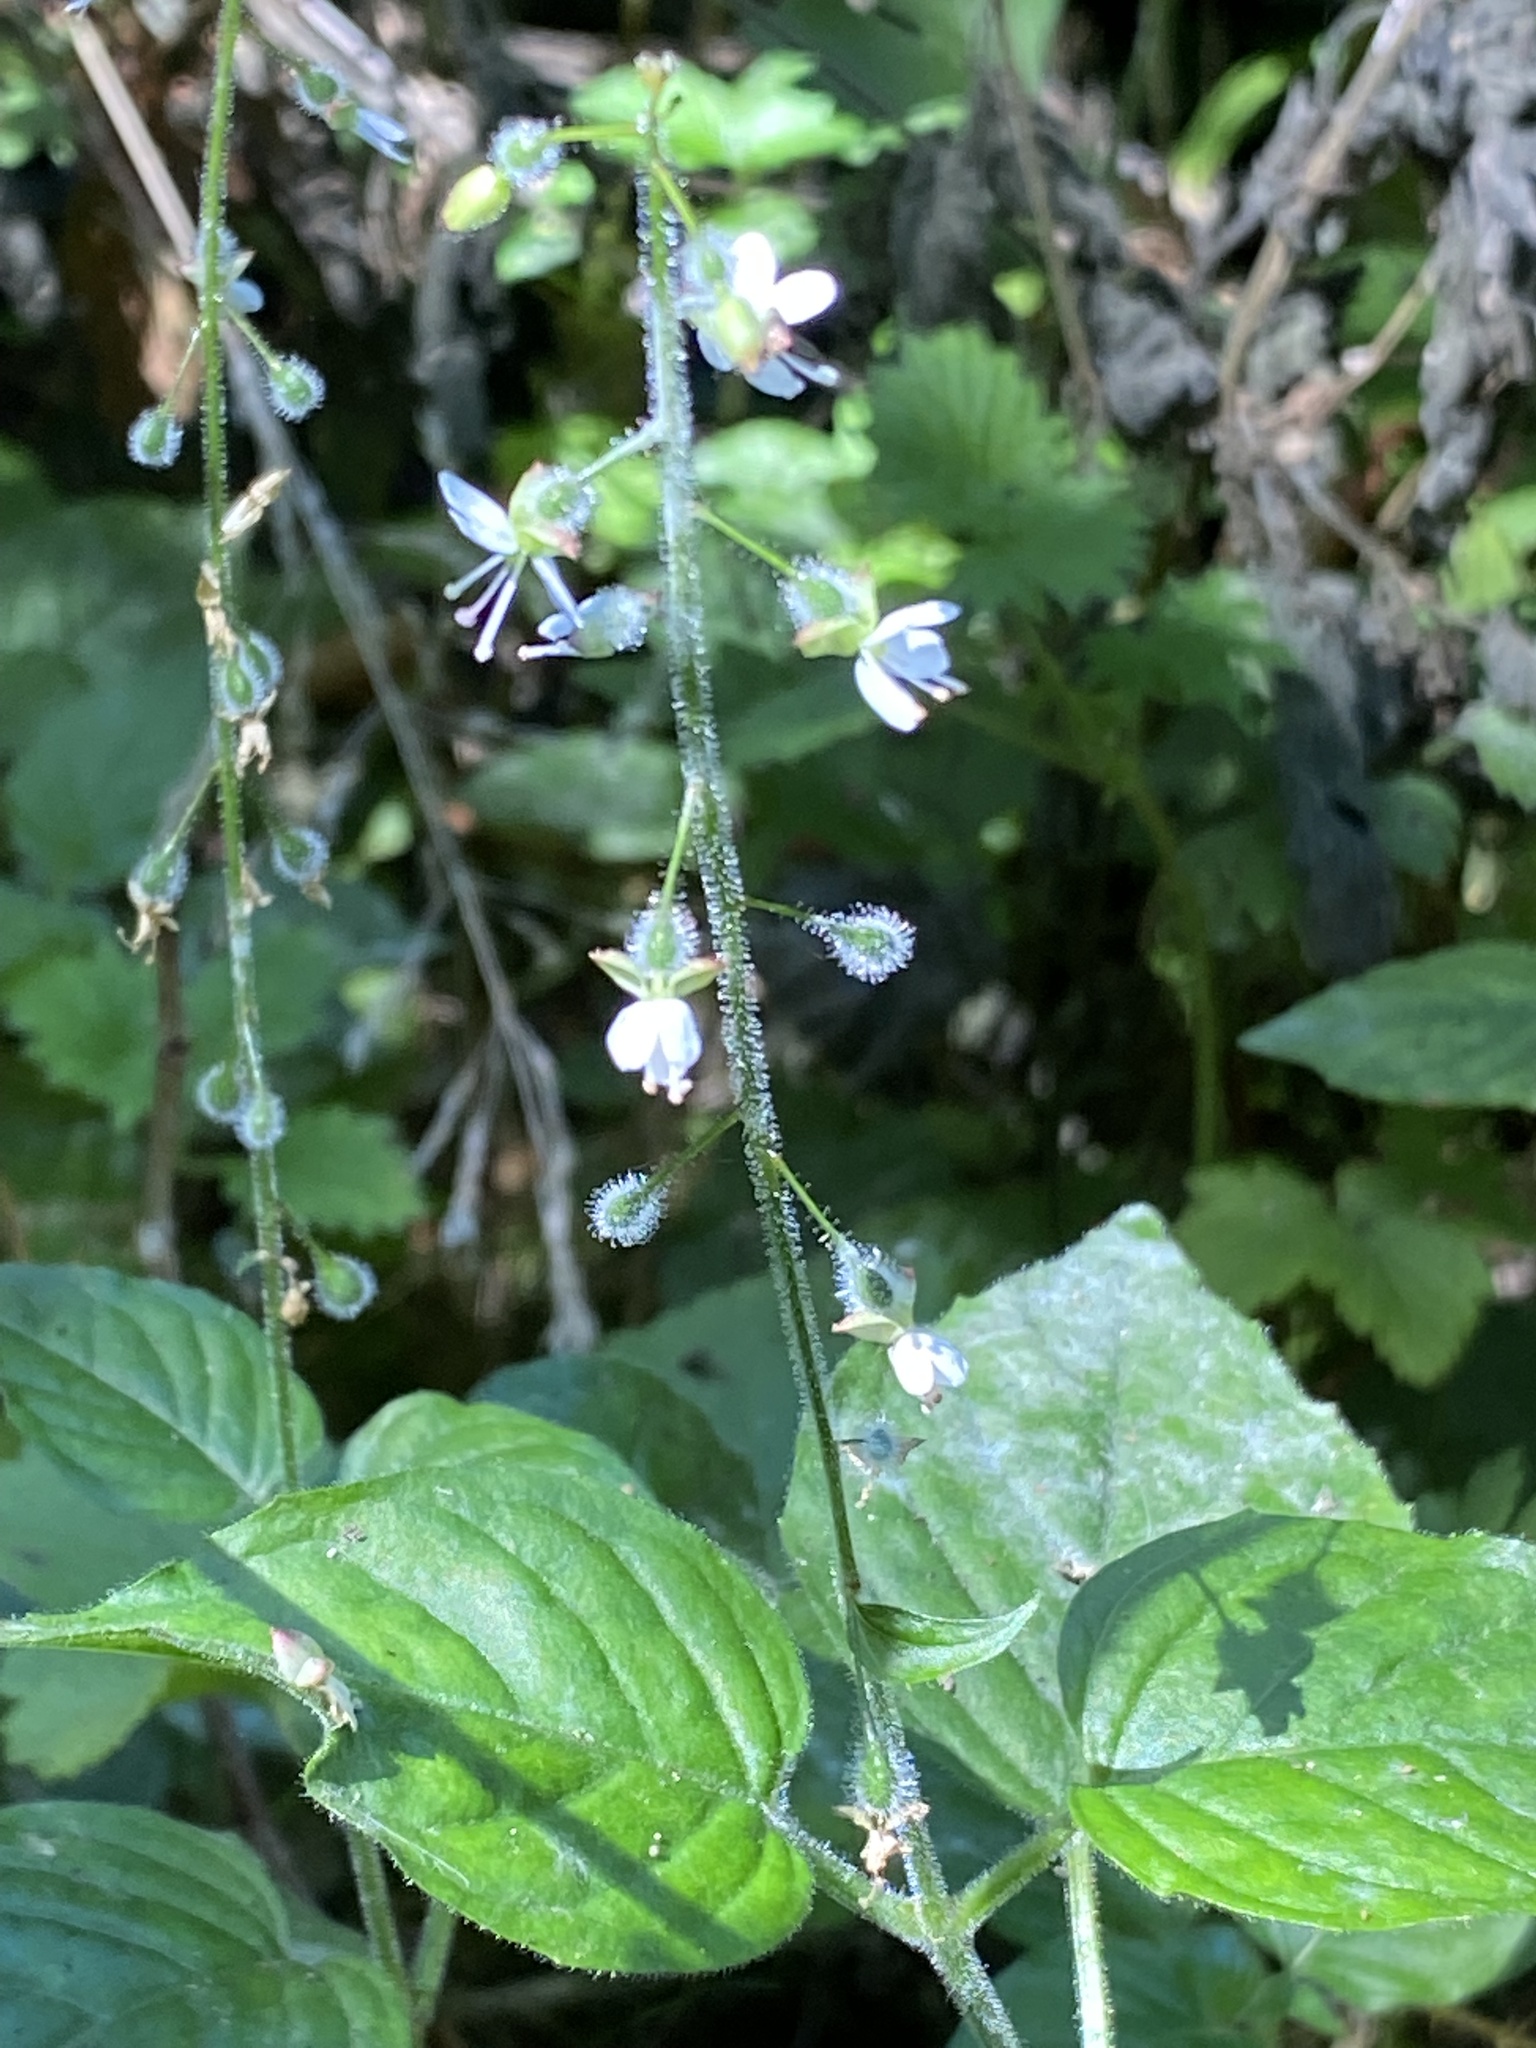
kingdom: Plantae
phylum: Tracheophyta
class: Magnoliopsida
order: Myrtales
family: Onagraceae
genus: Circaea
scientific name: Circaea lutetiana
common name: Enchanter's-nightshade
